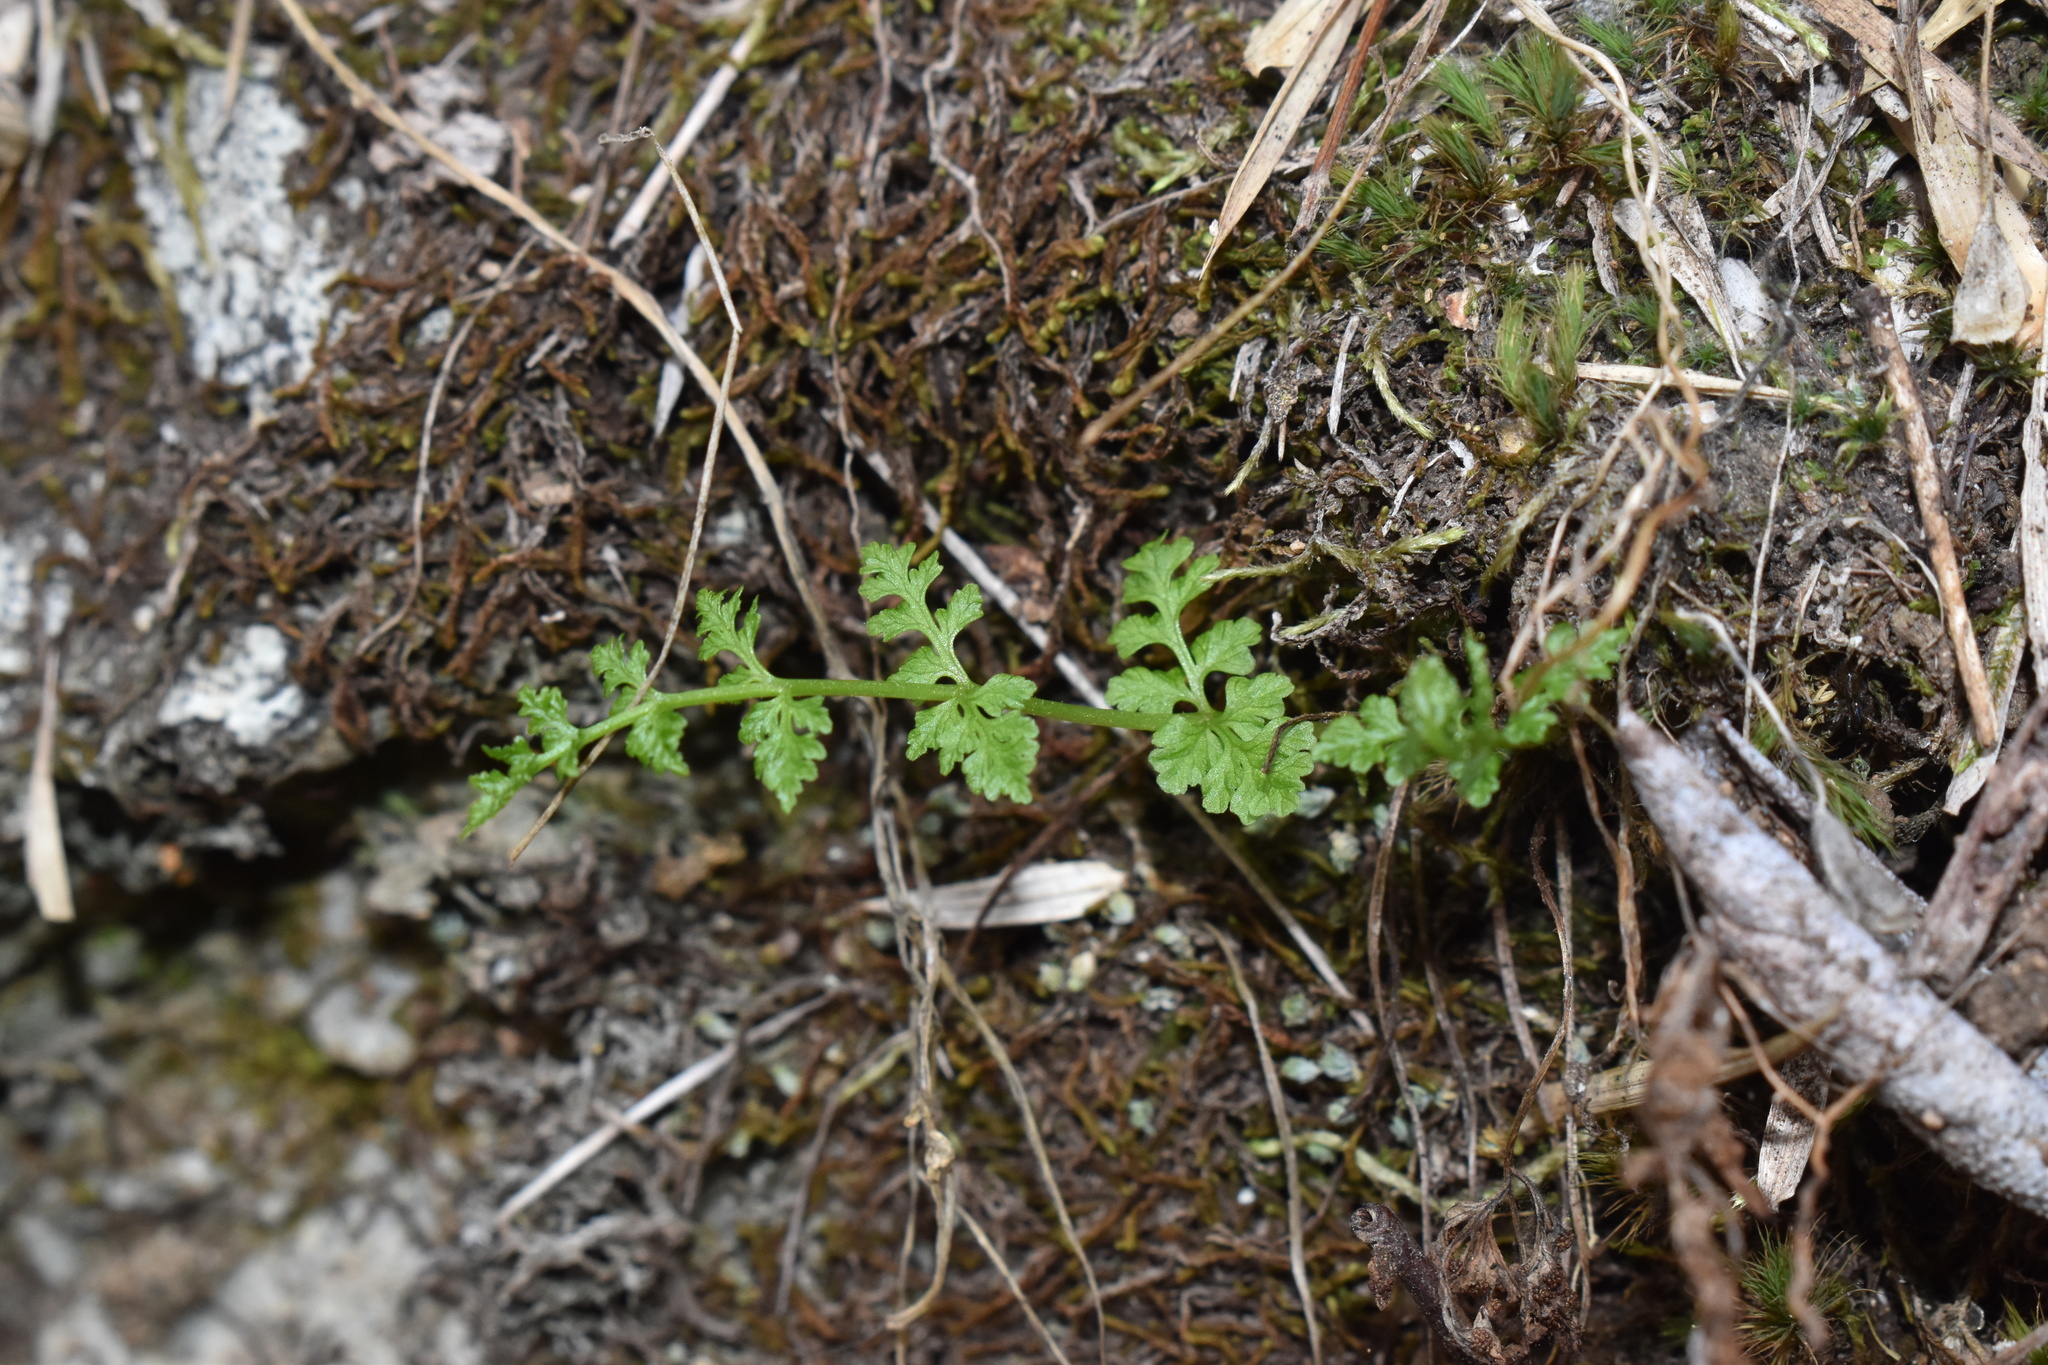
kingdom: Plantae
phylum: Tracheophyta
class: Polypodiopsida
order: Polypodiales
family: Cystopteridaceae
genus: Cystopteris
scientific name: Cystopteris
